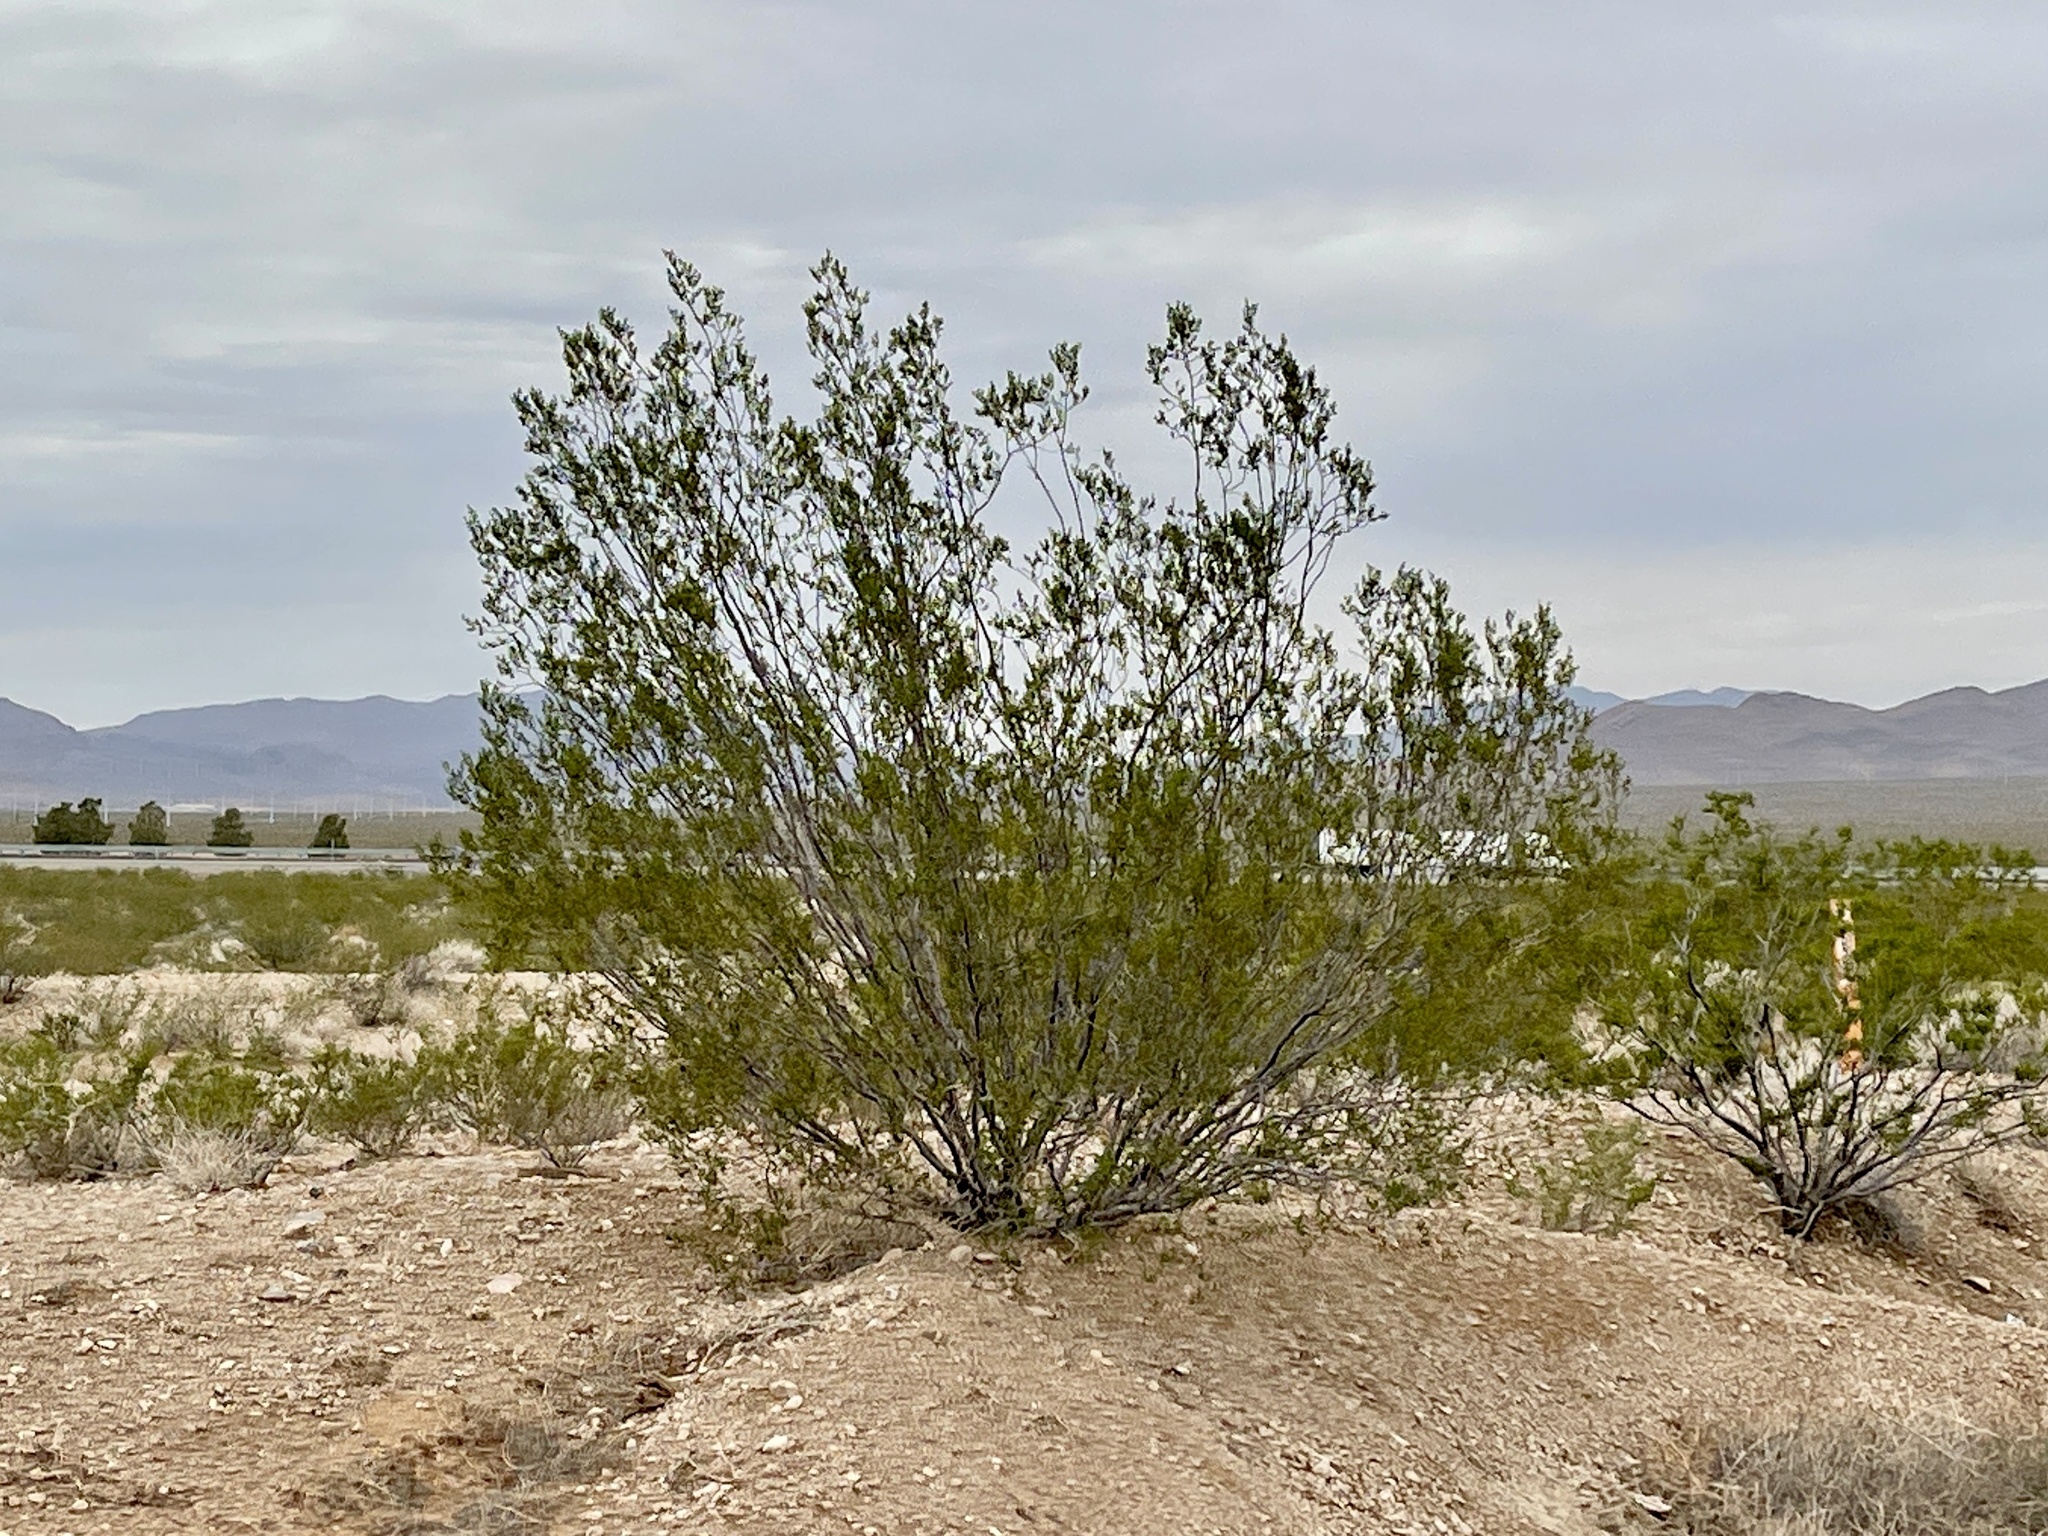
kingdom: Plantae
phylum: Tracheophyta
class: Magnoliopsida
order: Zygophyllales
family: Zygophyllaceae
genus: Larrea
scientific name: Larrea tridentata
